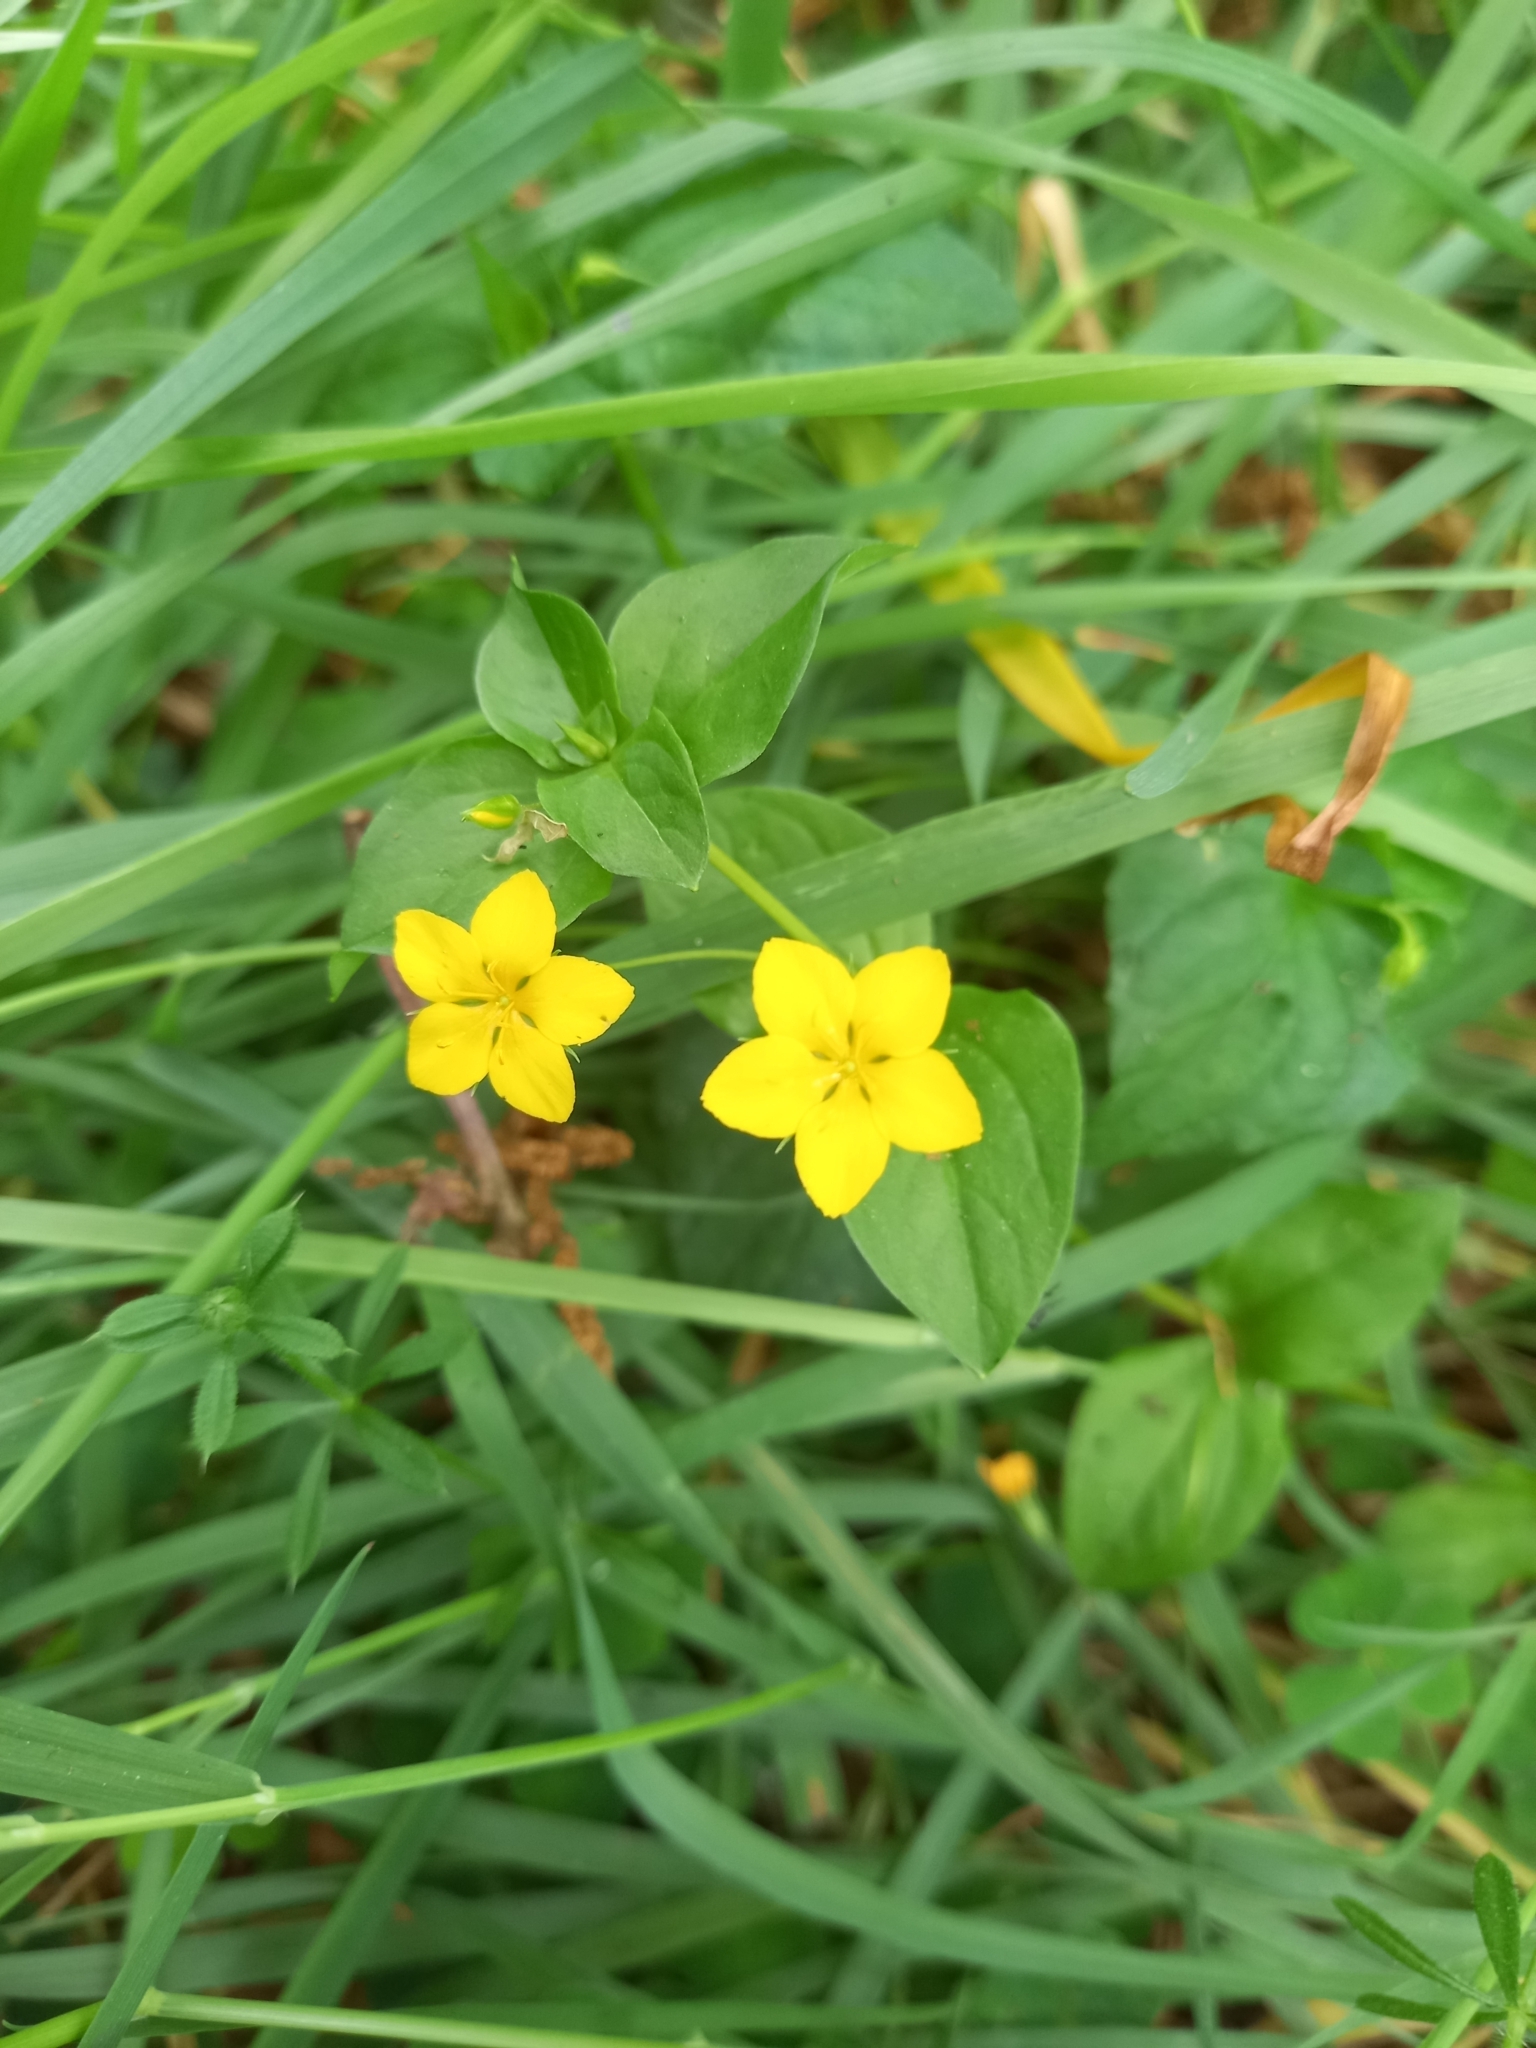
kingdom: Plantae
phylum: Tracheophyta
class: Magnoliopsida
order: Ericales
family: Primulaceae
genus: Lysimachia
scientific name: Lysimachia nemorum
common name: Yellow pimpernel
